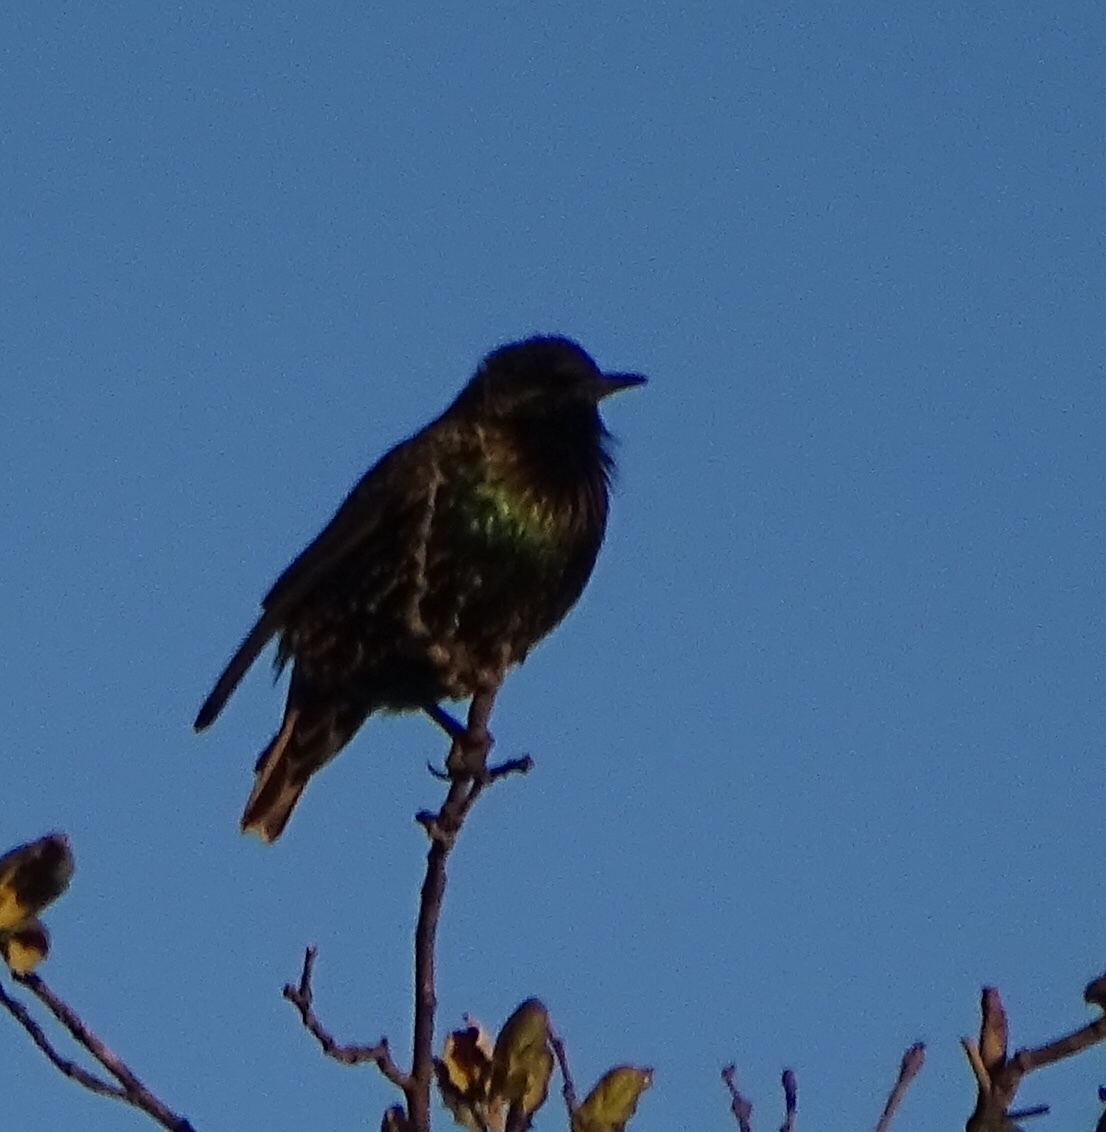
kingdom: Animalia
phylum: Chordata
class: Aves
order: Passeriformes
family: Sturnidae
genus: Sturnus
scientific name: Sturnus vulgaris
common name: Common starling
